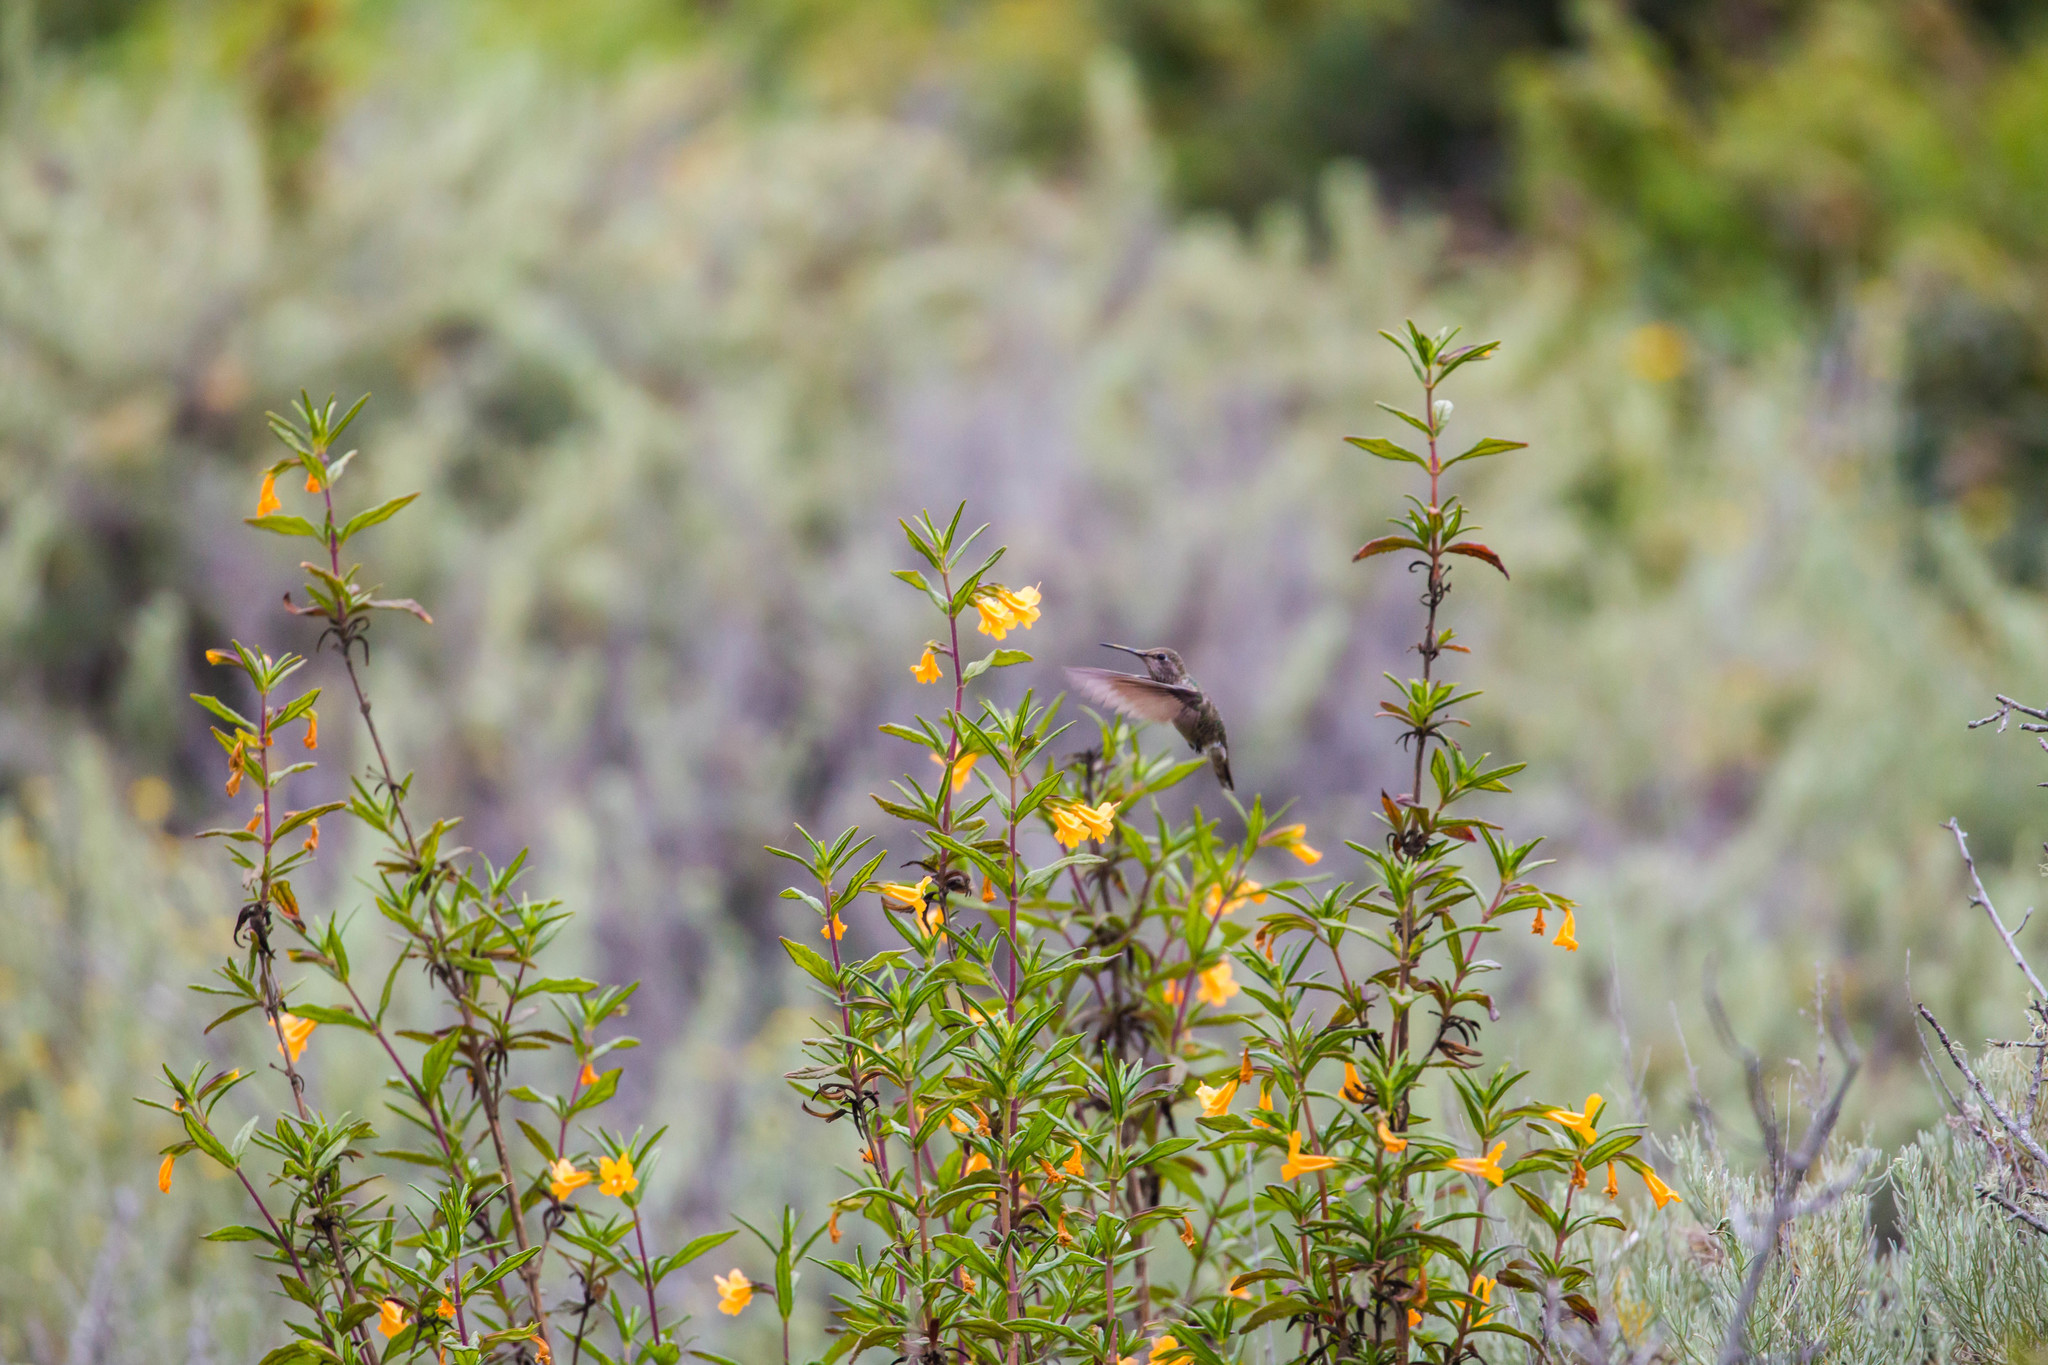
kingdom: Animalia
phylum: Chordata
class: Aves
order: Apodiformes
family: Trochilidae
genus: Calypte
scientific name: Calypte anna
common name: Anna's hummingbird
